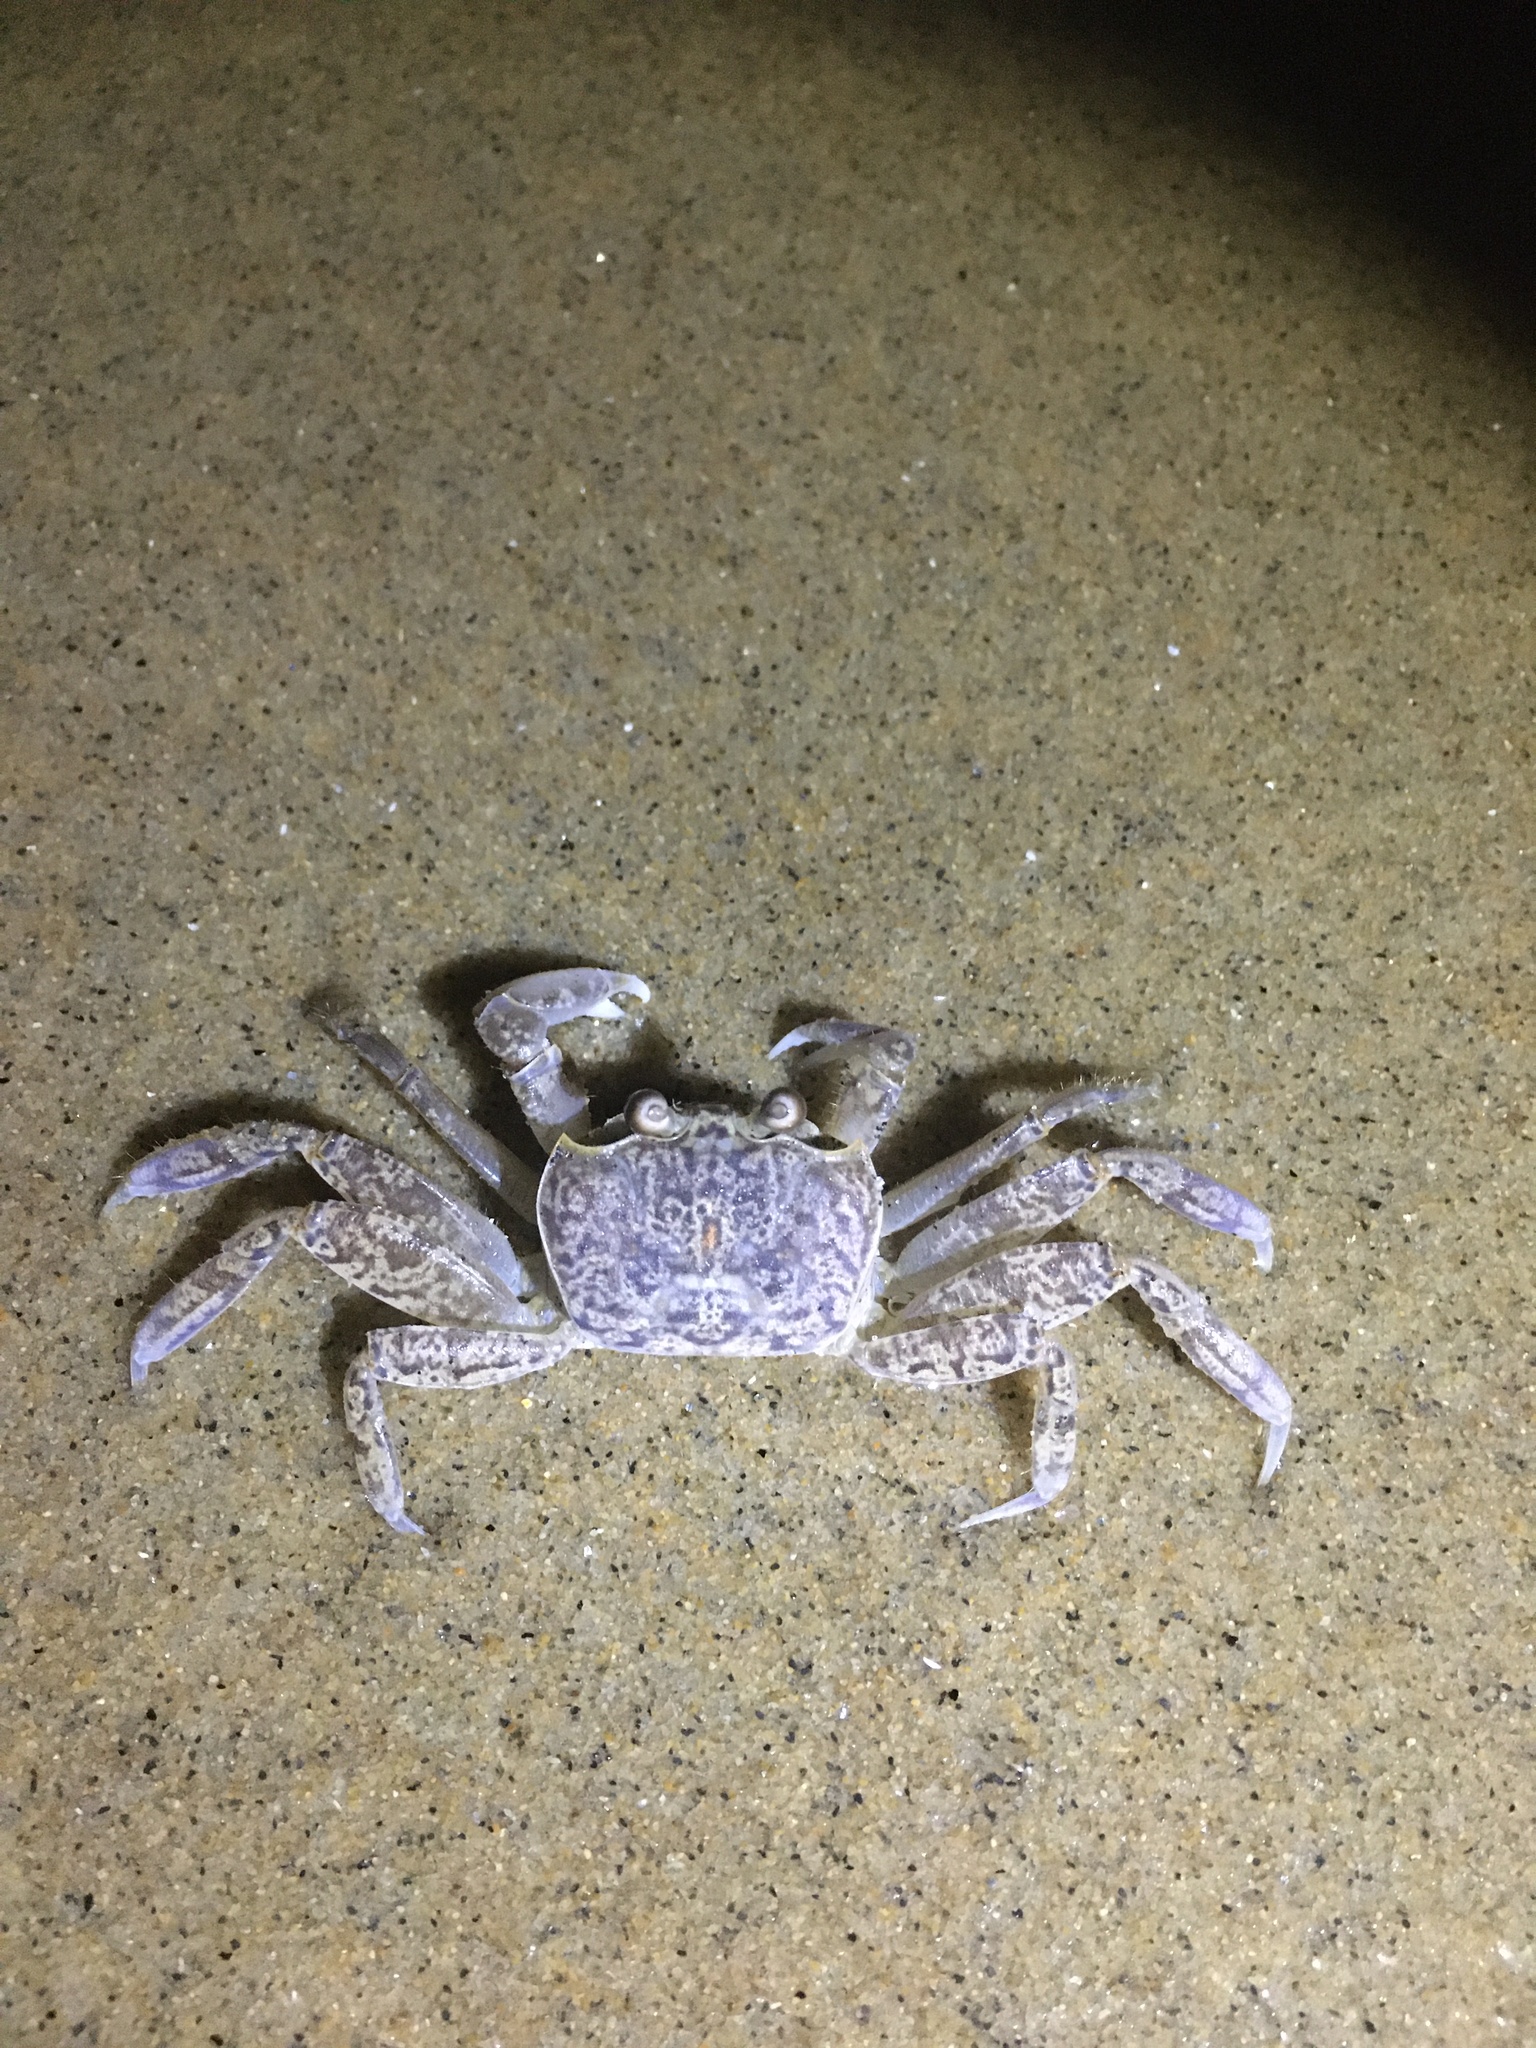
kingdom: Animalia
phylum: Arthropoda
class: Malacostraca
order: Decapoda
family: Ocypodidae
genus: Ocypode
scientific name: Ocypode quadrata
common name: Ghost crab
